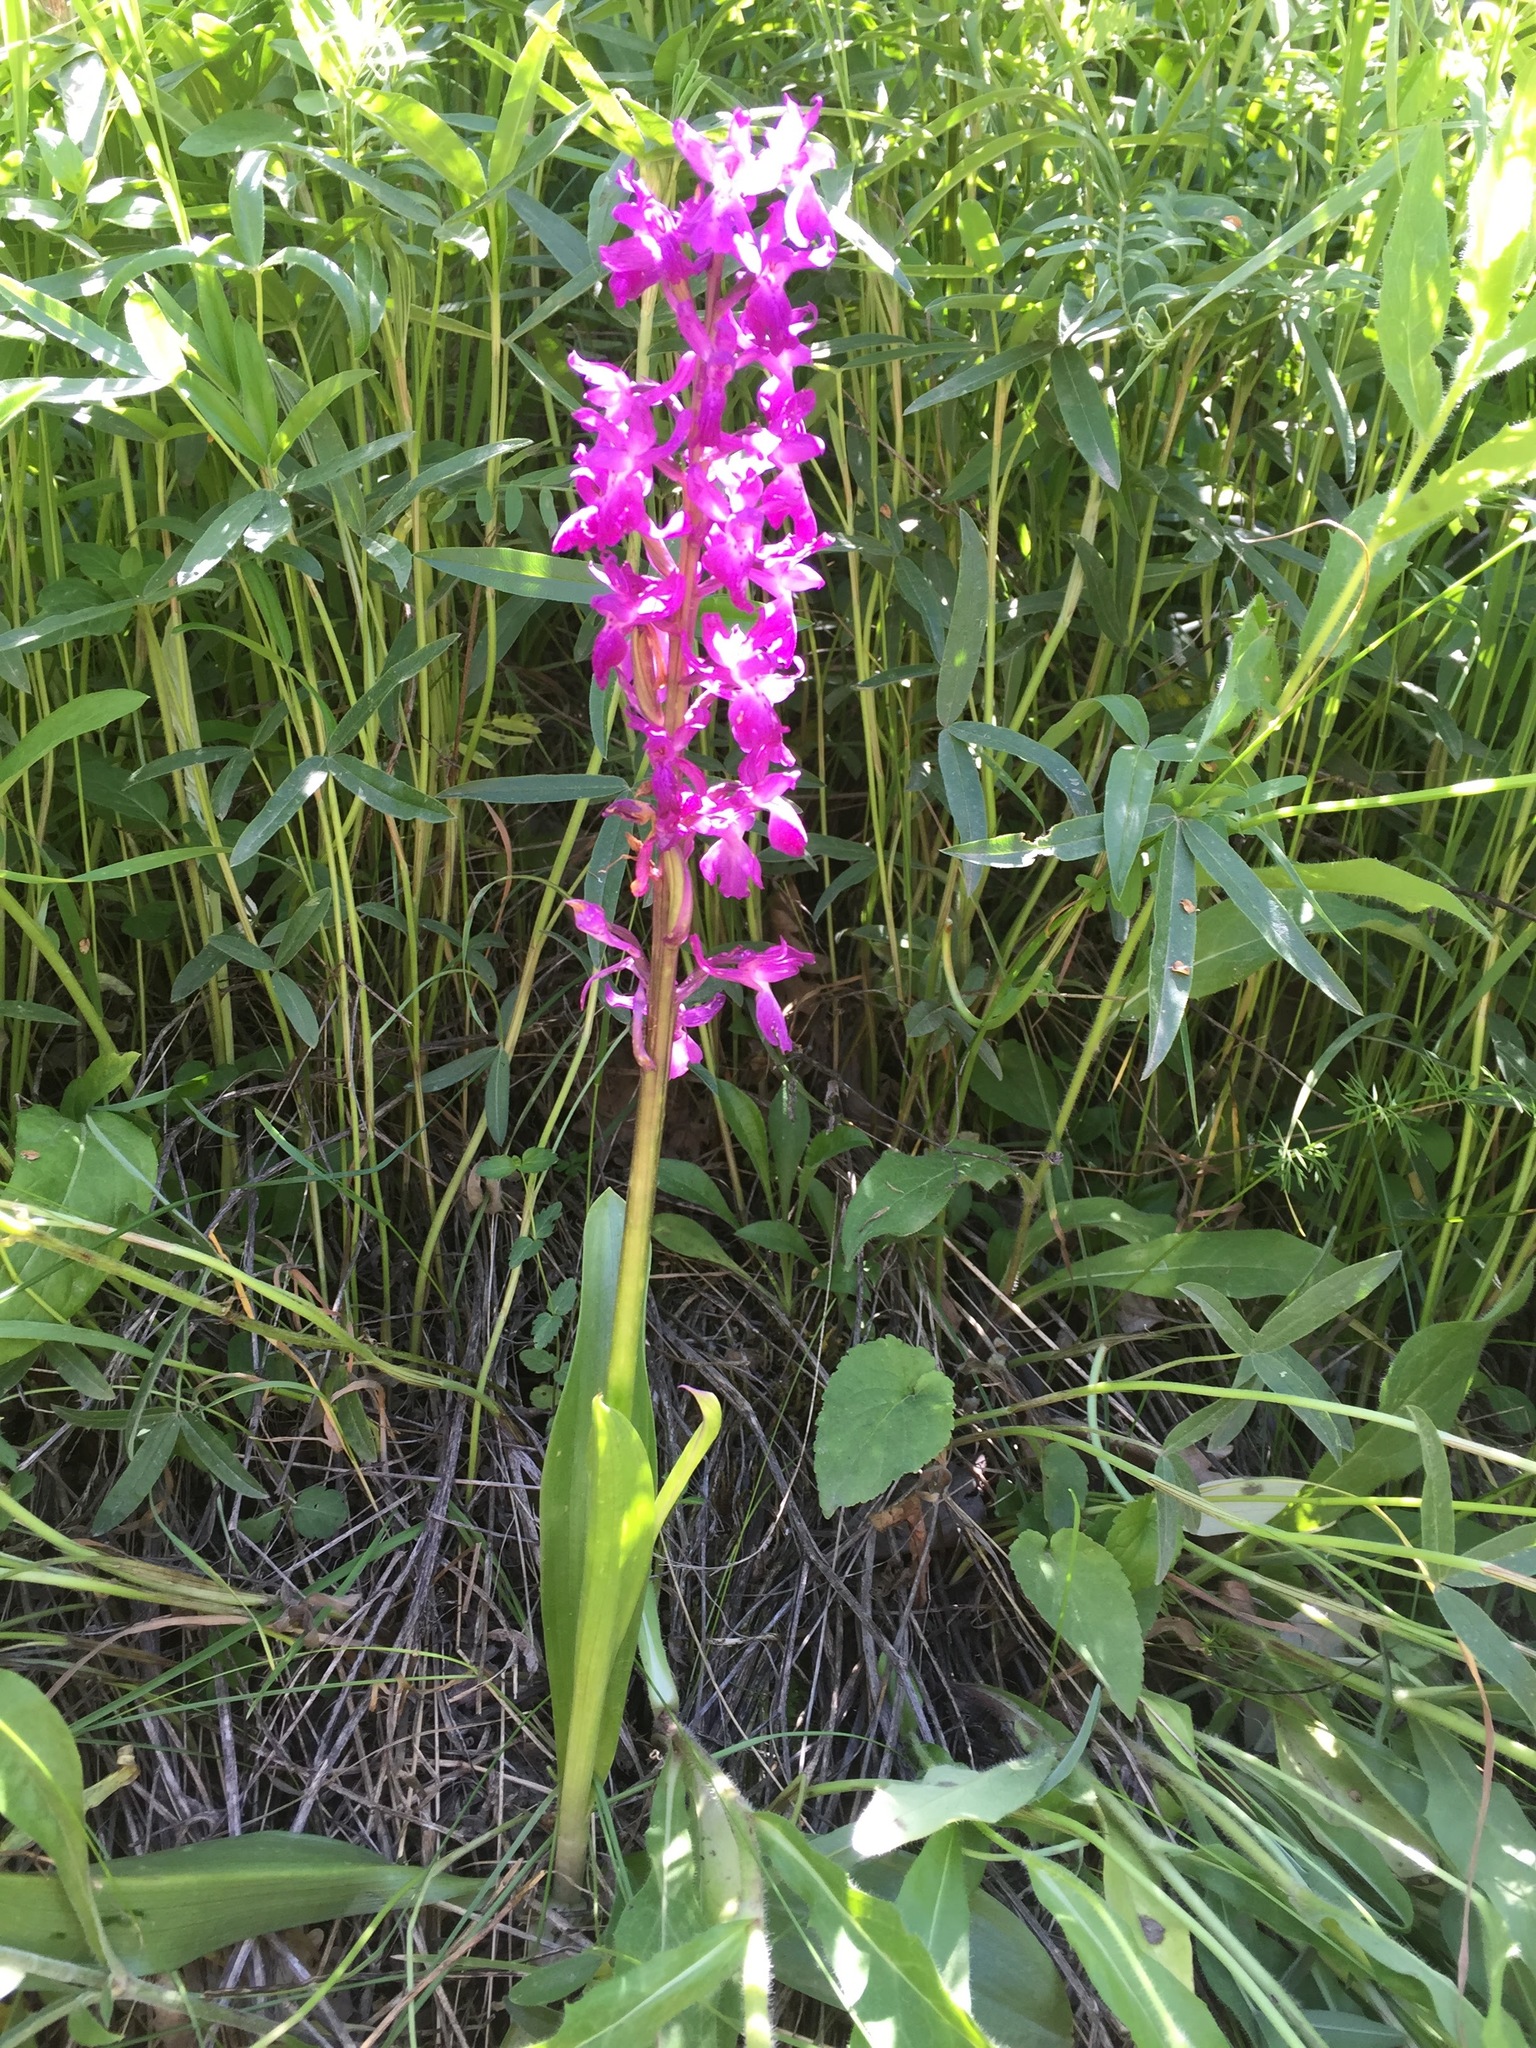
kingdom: Plantae
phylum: Tracheophyta
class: Liliopsida
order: Asparagales
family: Orchidaceae
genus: Orchis
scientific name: Orchis mascula
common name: Early-purple orchid
